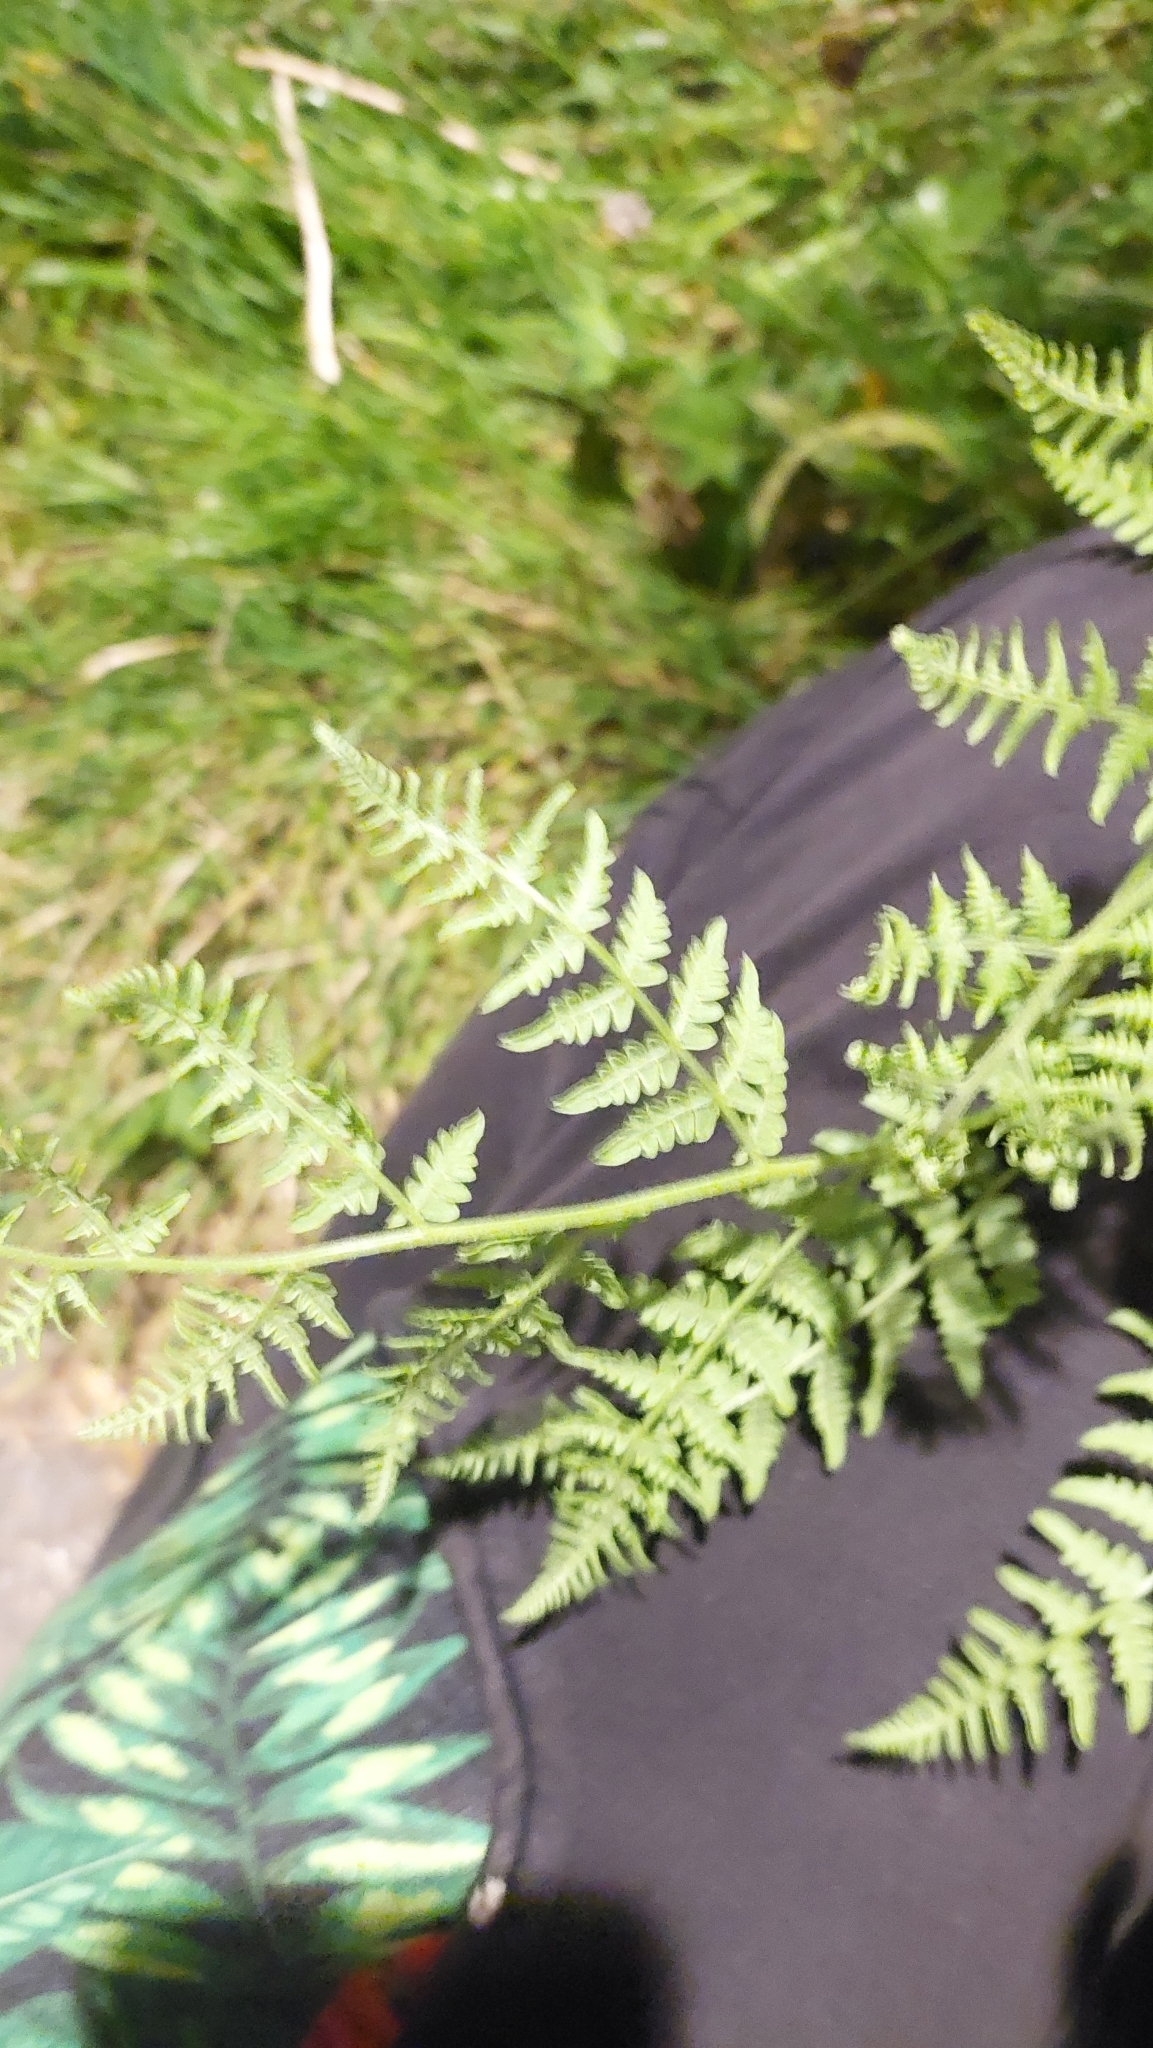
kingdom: Plantae
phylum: Tracheophyta
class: Polypodiopsida
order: Polypodiales
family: Dennstaedtiaceae
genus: Pteridium
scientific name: Pteridium aquilinum
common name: Bracken
